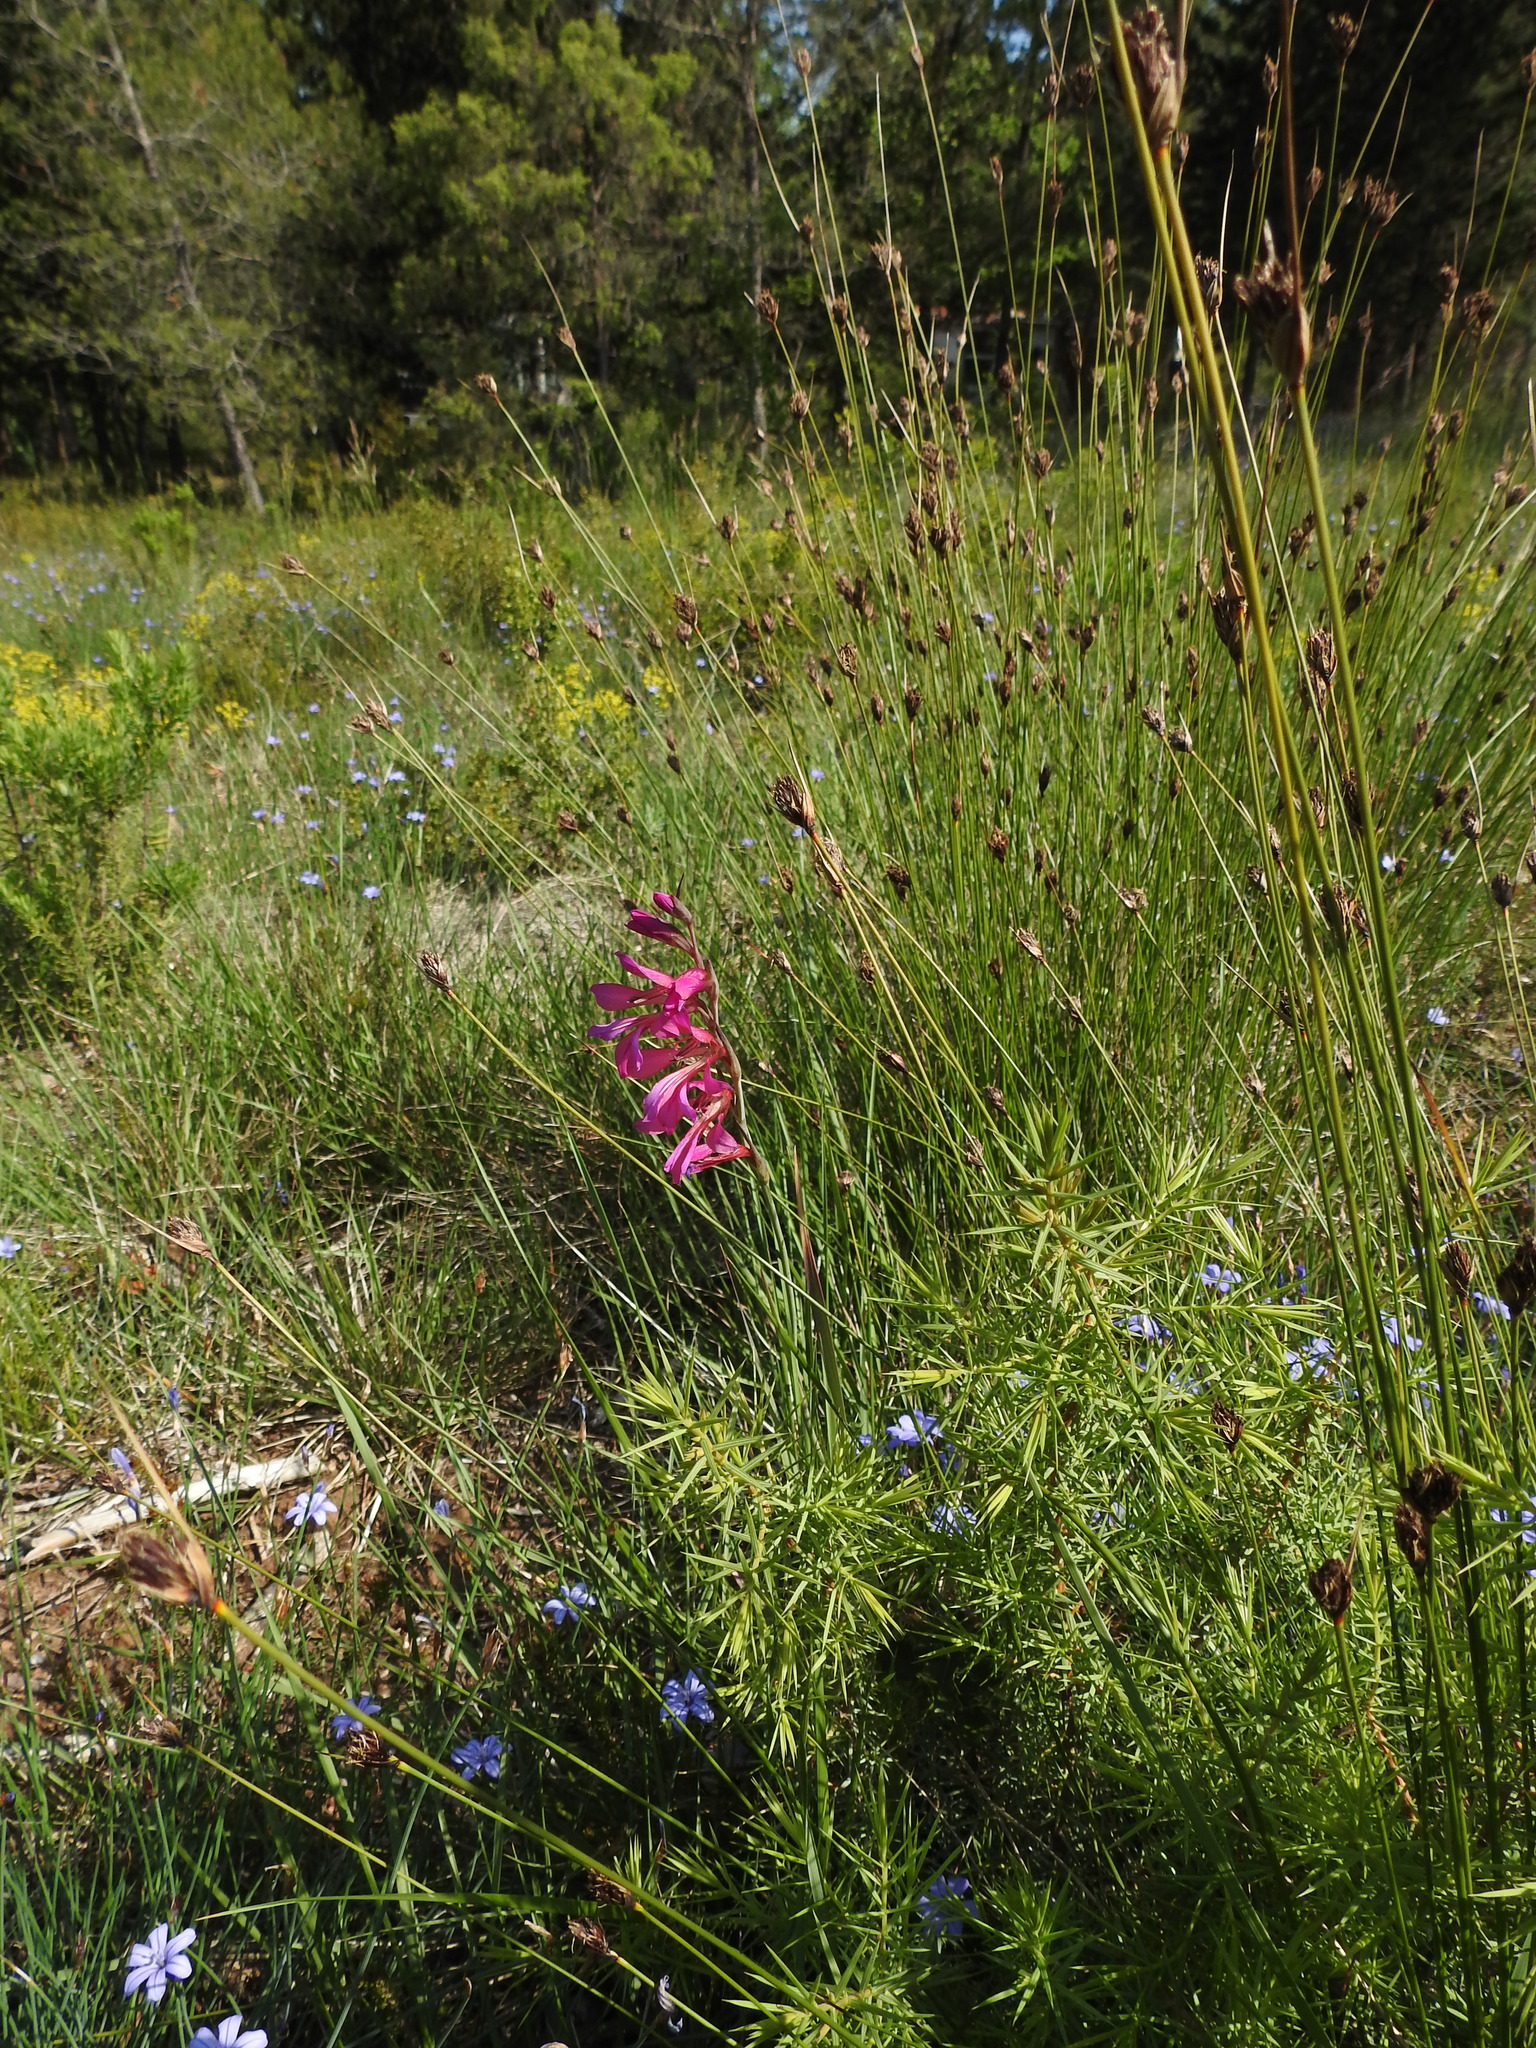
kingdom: Plantae
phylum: Tracheophyta
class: Liliopsida
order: Asparagales
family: Iridaceae
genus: Gladiolus
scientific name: Gladiolus dubius
